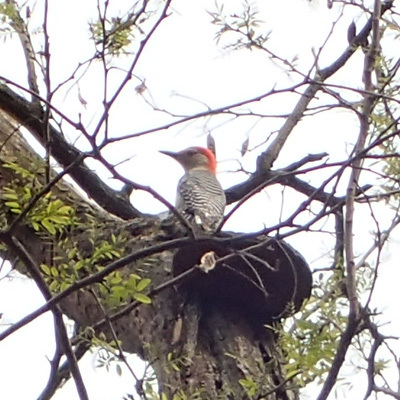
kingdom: Animalia
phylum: Chordata
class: Aves
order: Piciformes
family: Picidae
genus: Melanerpes
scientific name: Melanerpes carolinus
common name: Red-bellied woodpecker
